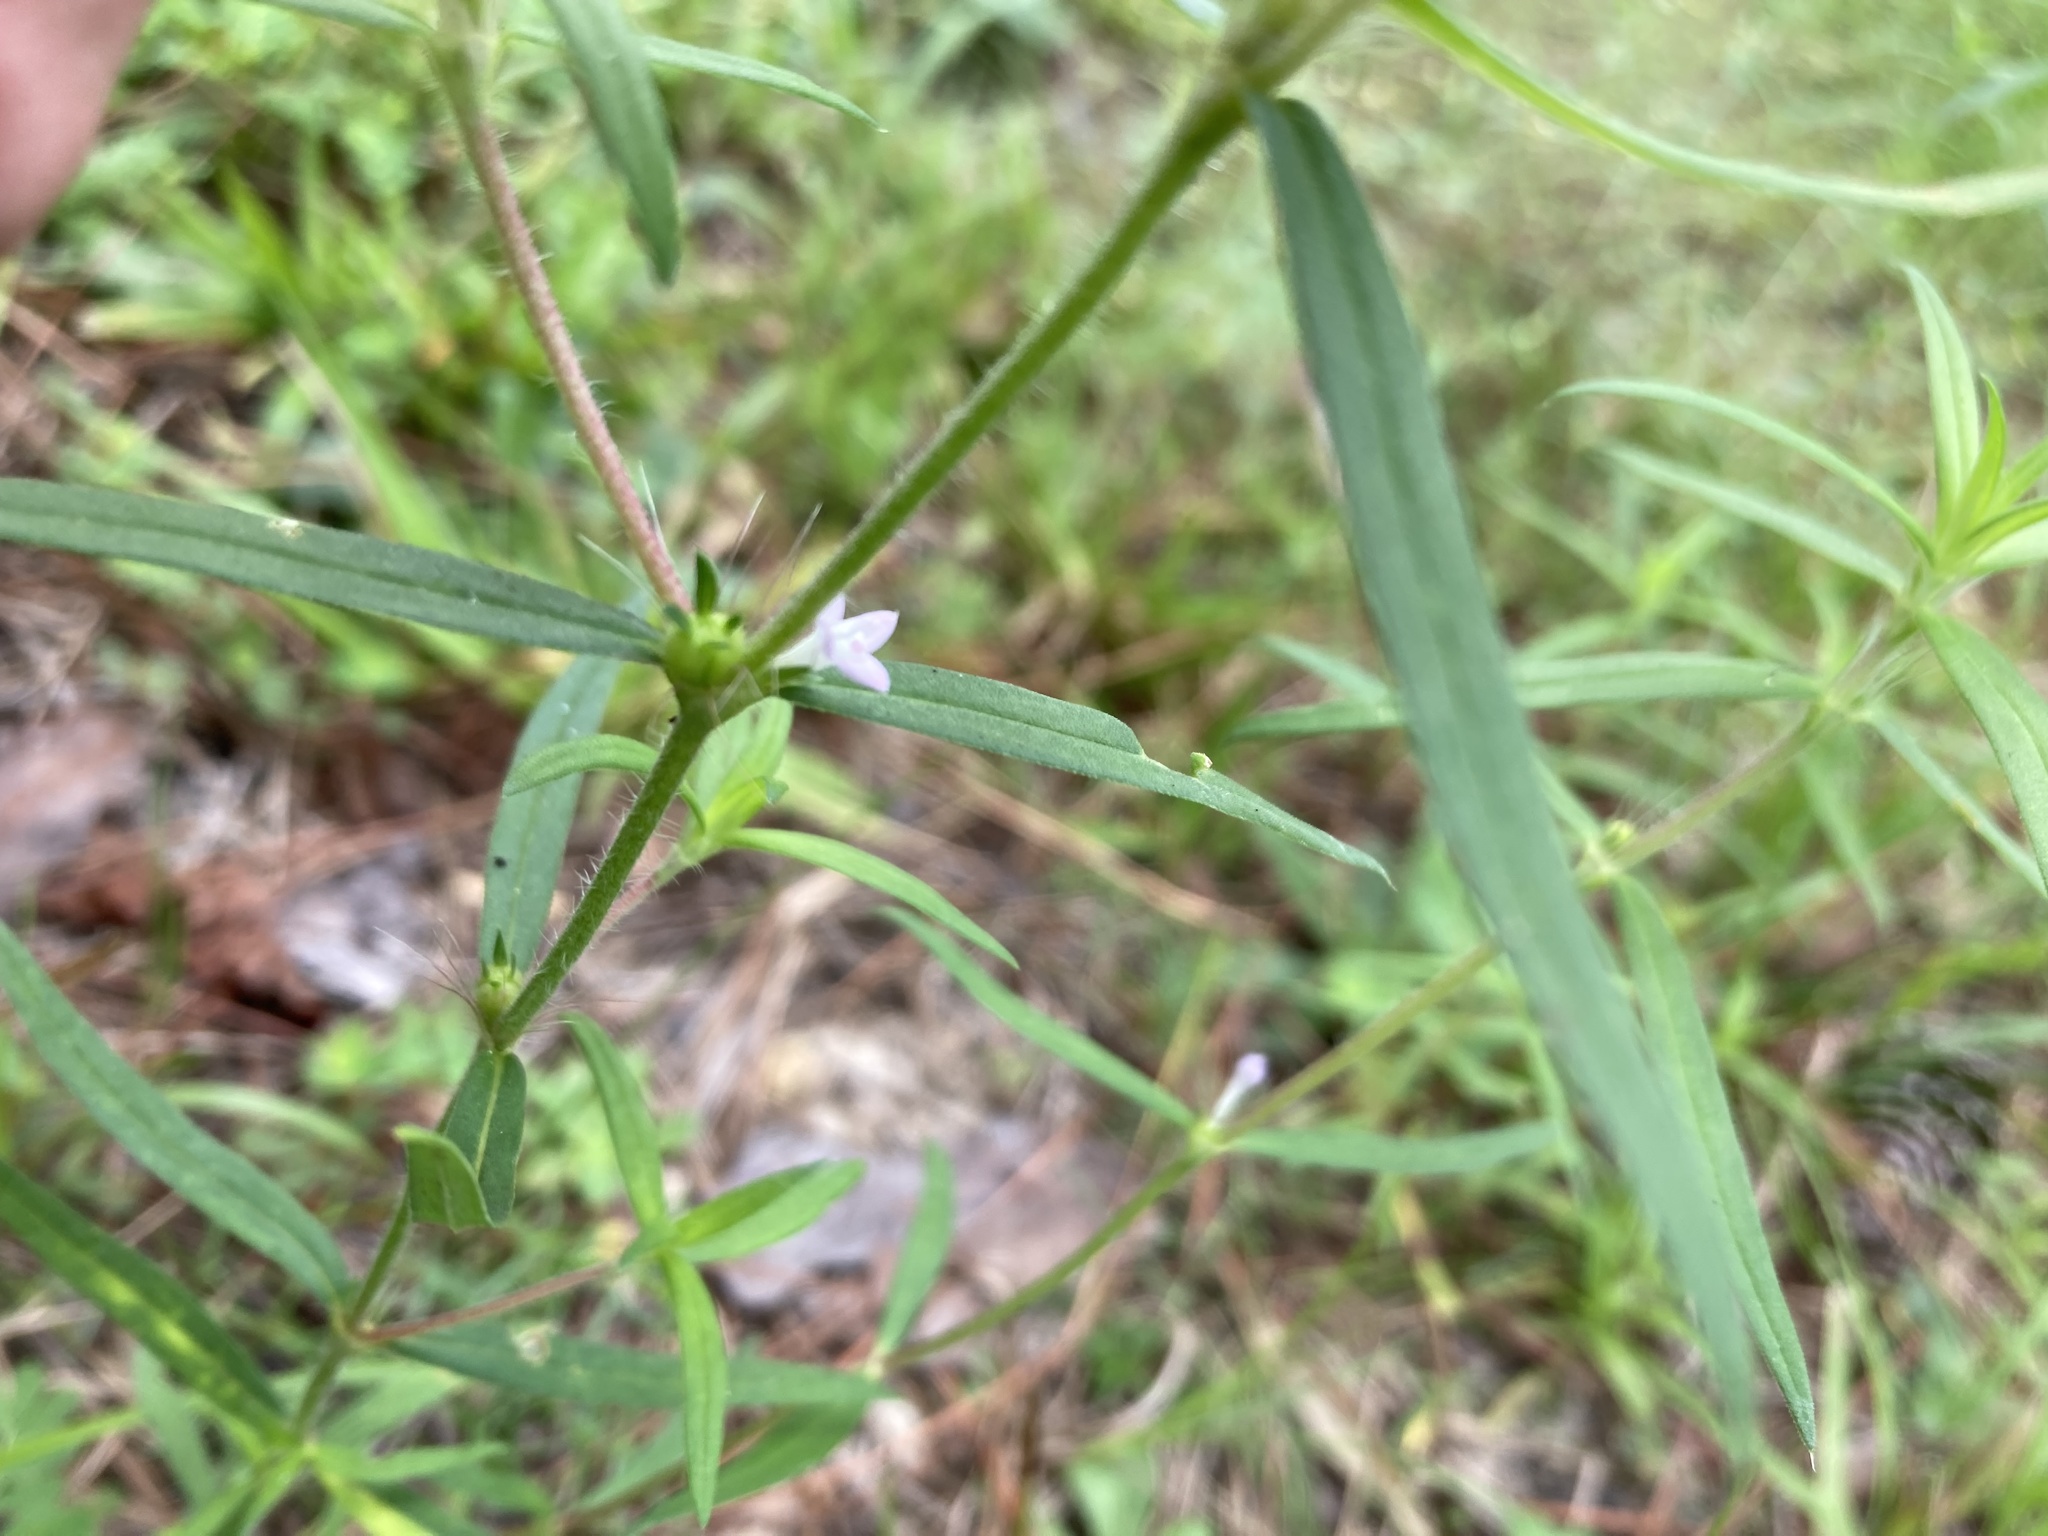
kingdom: Plantae
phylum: Tracheophyta
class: Magnoliopsida
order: Gentianales
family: Rubiaceae
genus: Hexasepalum
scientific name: Hexasepalum teres
